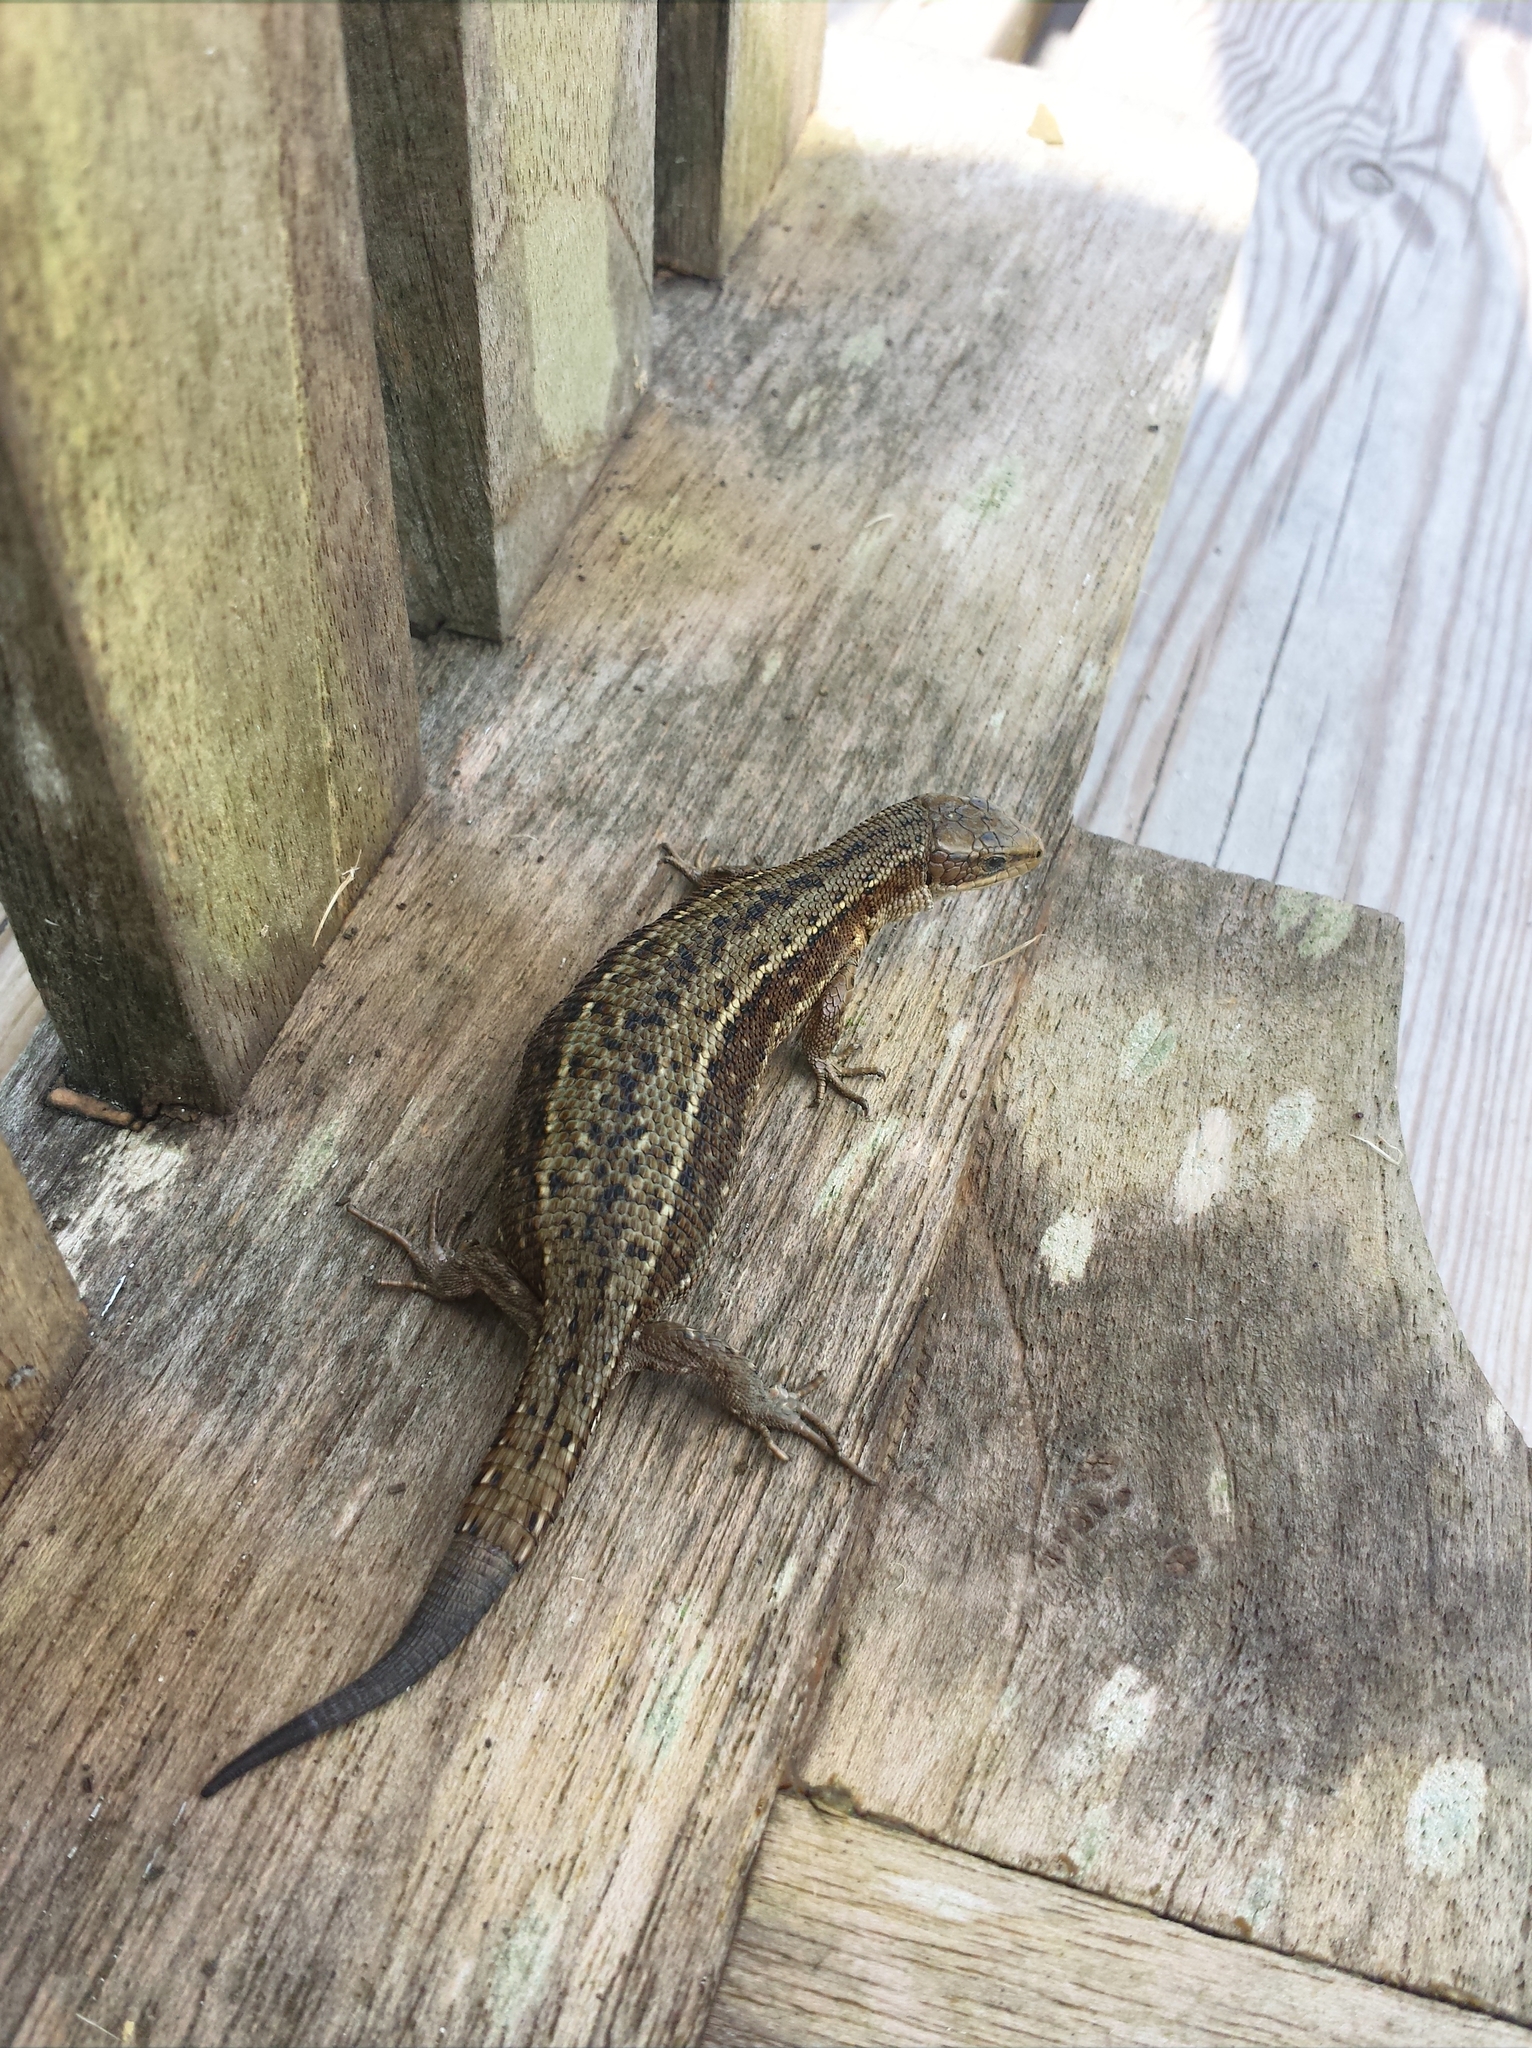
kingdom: Animalia
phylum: Chordata
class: Squamata
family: Lacertidae
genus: Zootoca
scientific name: Zootoca vivipara
